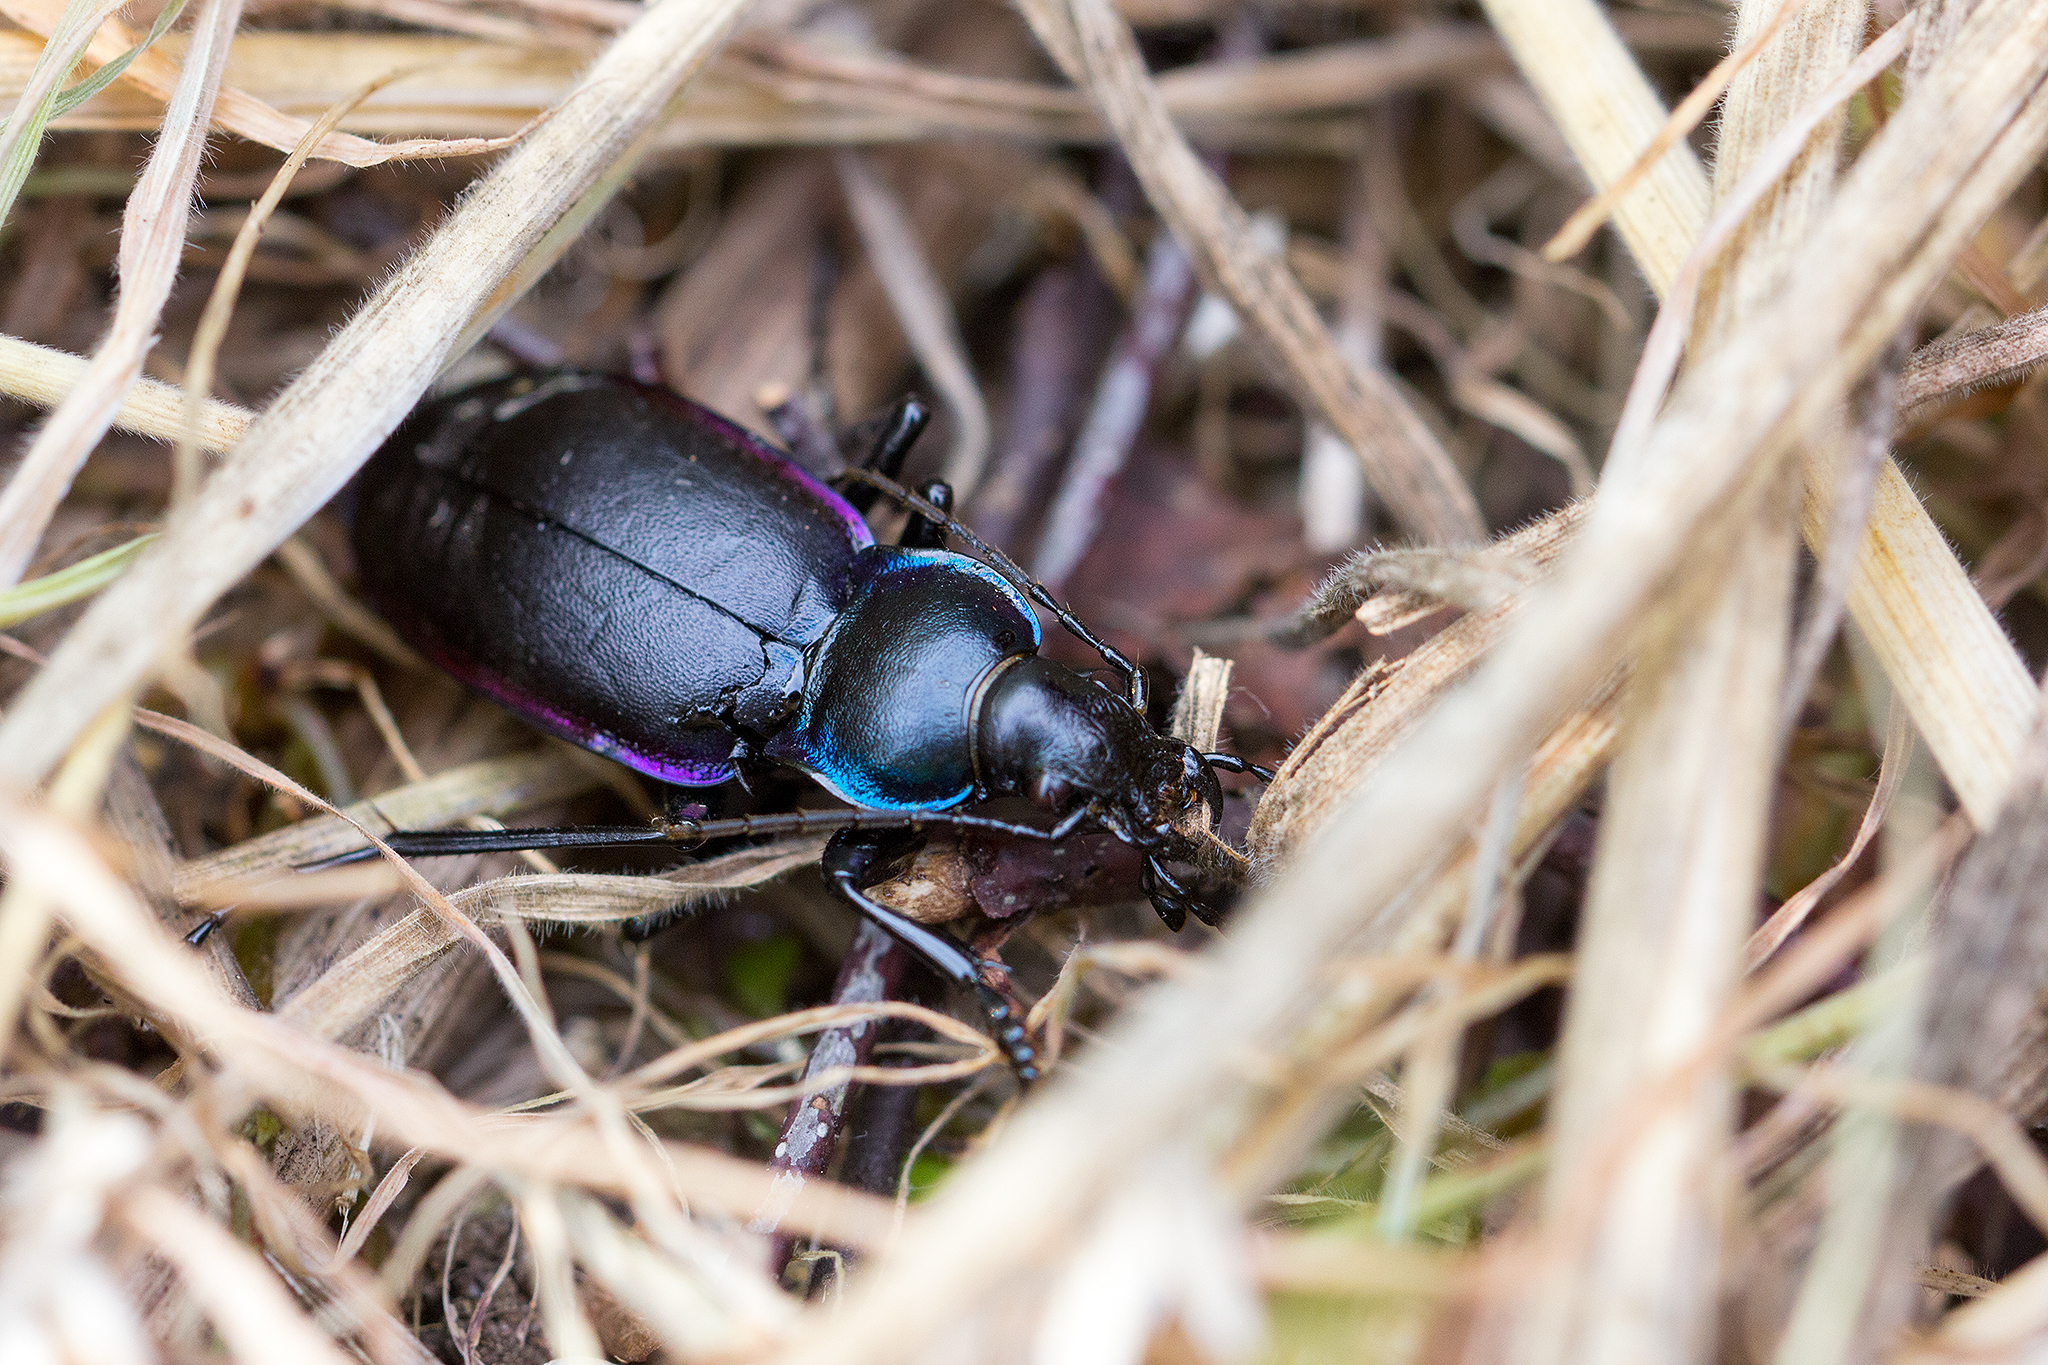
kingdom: Animalia
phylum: Arthropoda
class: Insecta
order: Coleoptera
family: Carabidae
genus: Carabus
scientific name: Carabus violaceus
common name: Violet ground beetle
